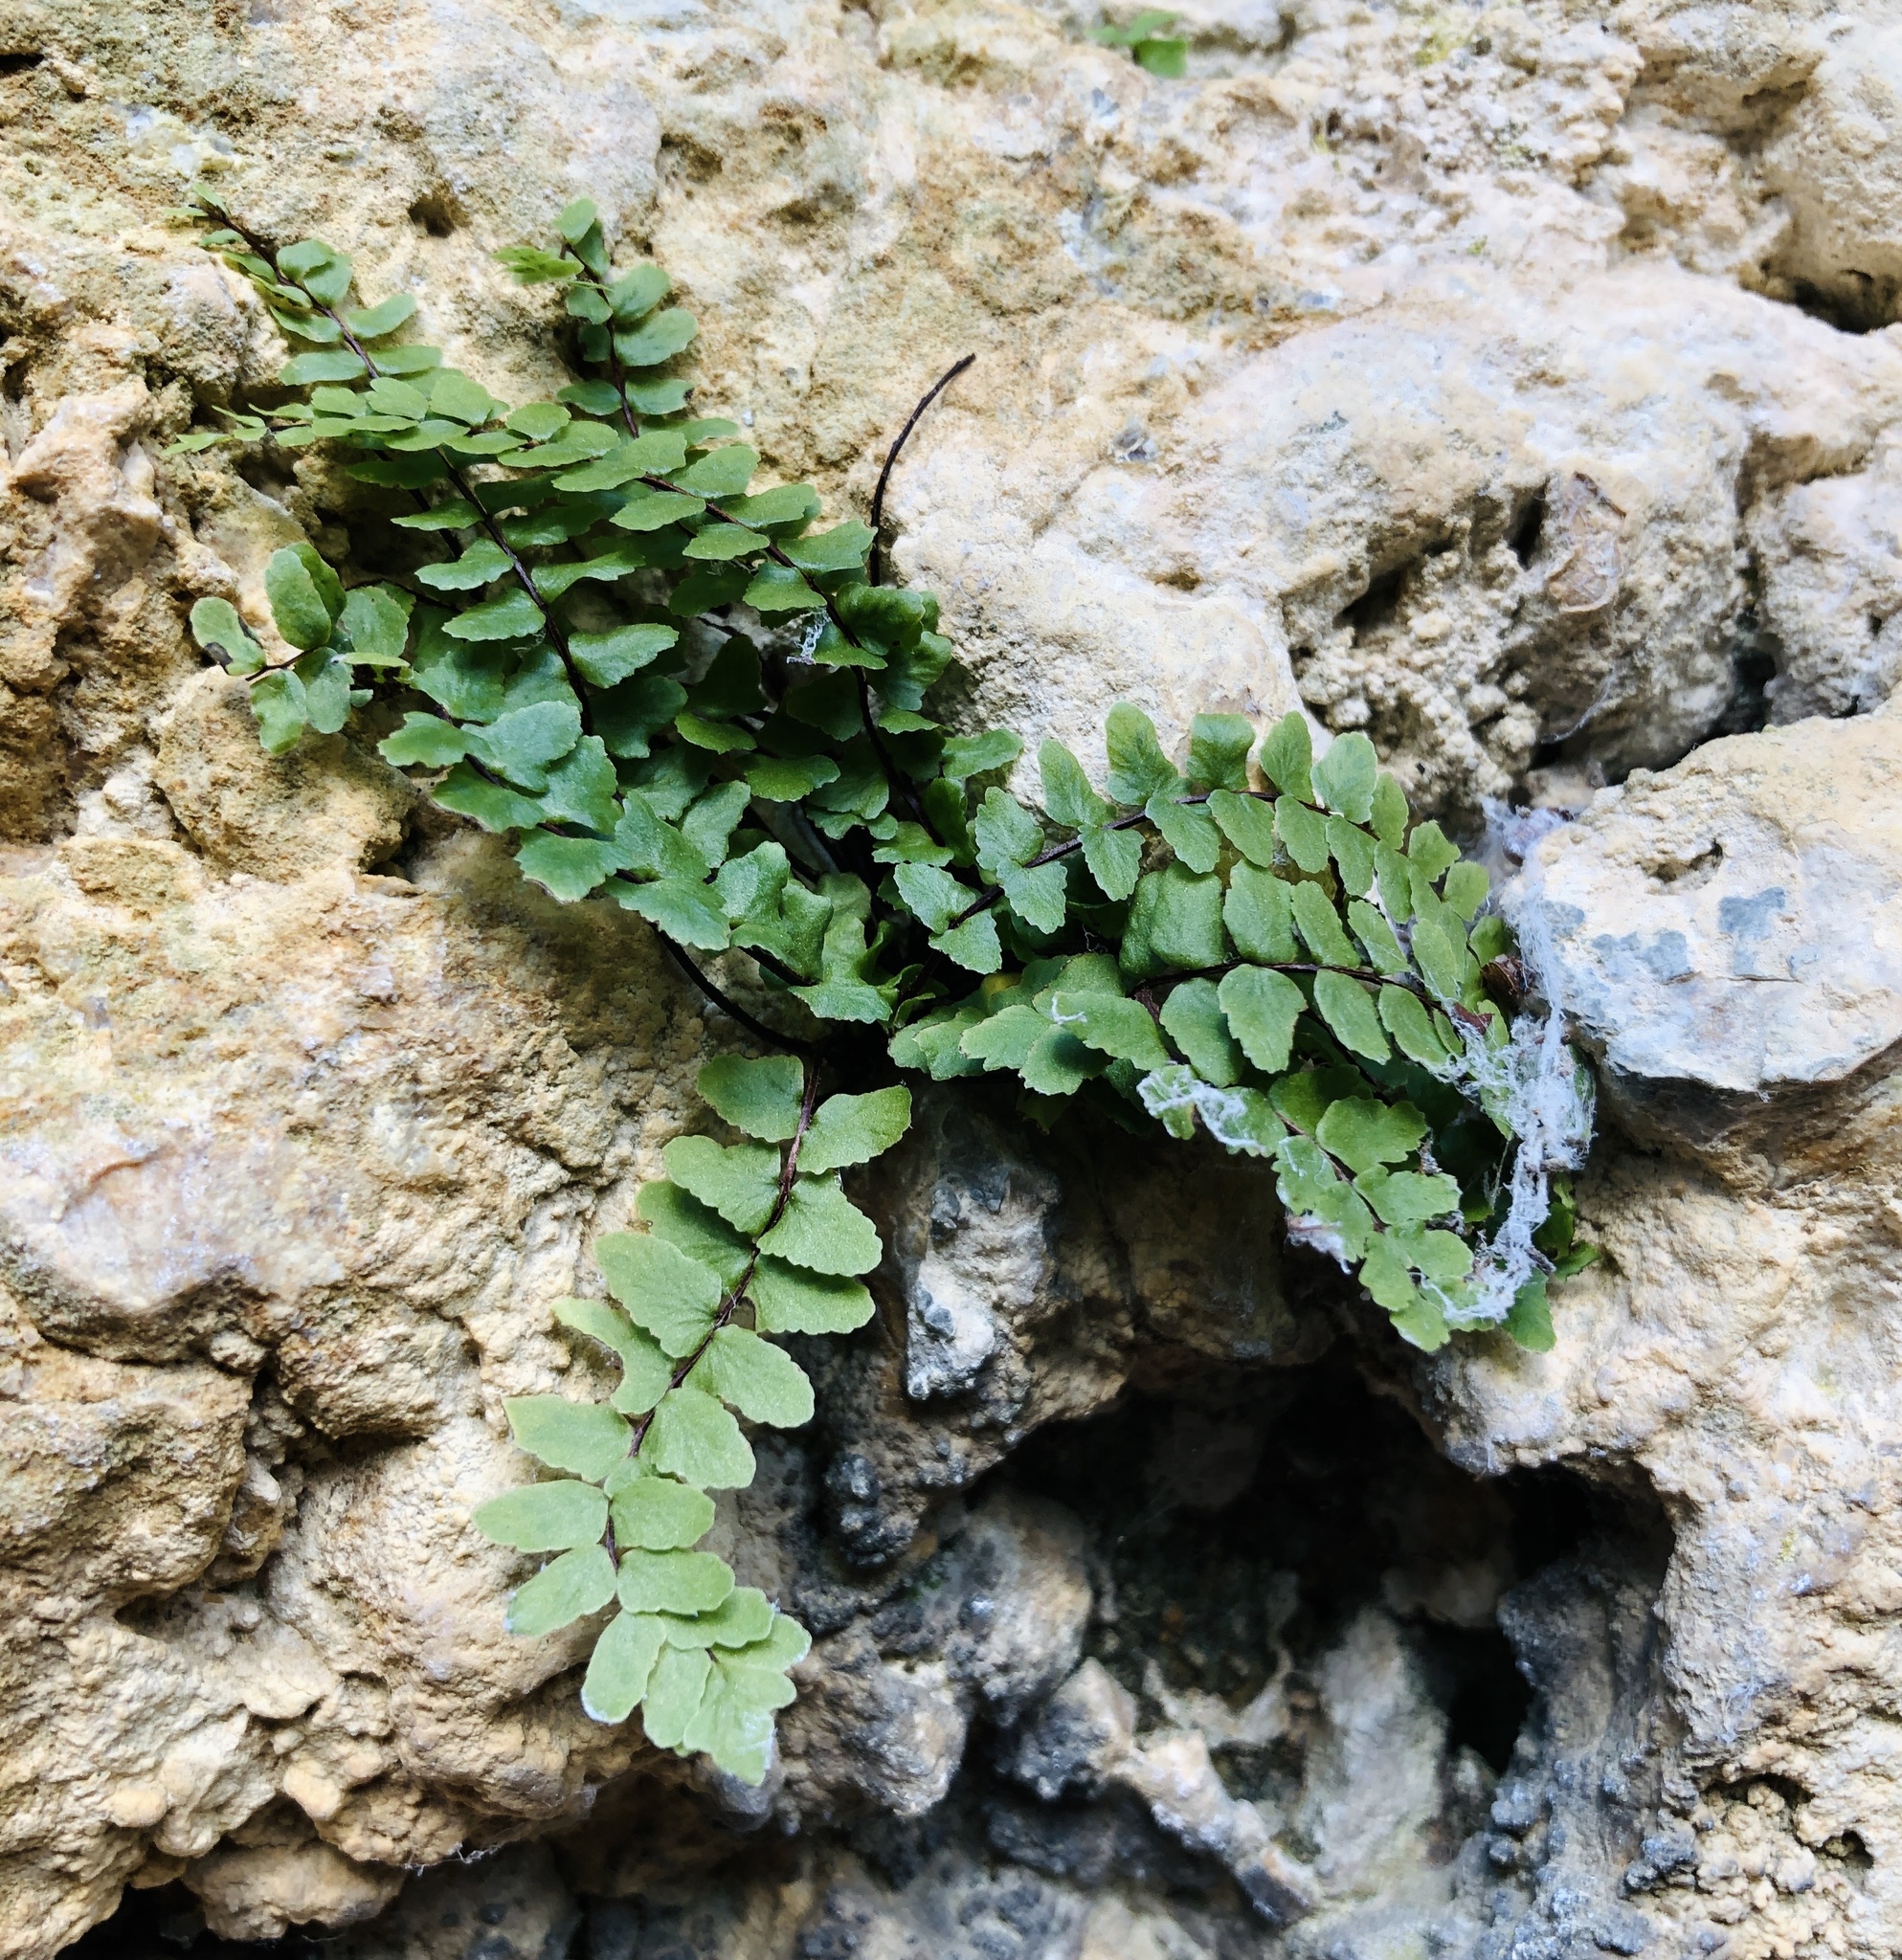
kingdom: Plantae
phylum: Tracheophyta
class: Polypodiopsida
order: Polypodiales
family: Aspleniaceae
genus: Asplenium
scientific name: Asplenium trichomanes
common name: Maidenhair spleenwort
